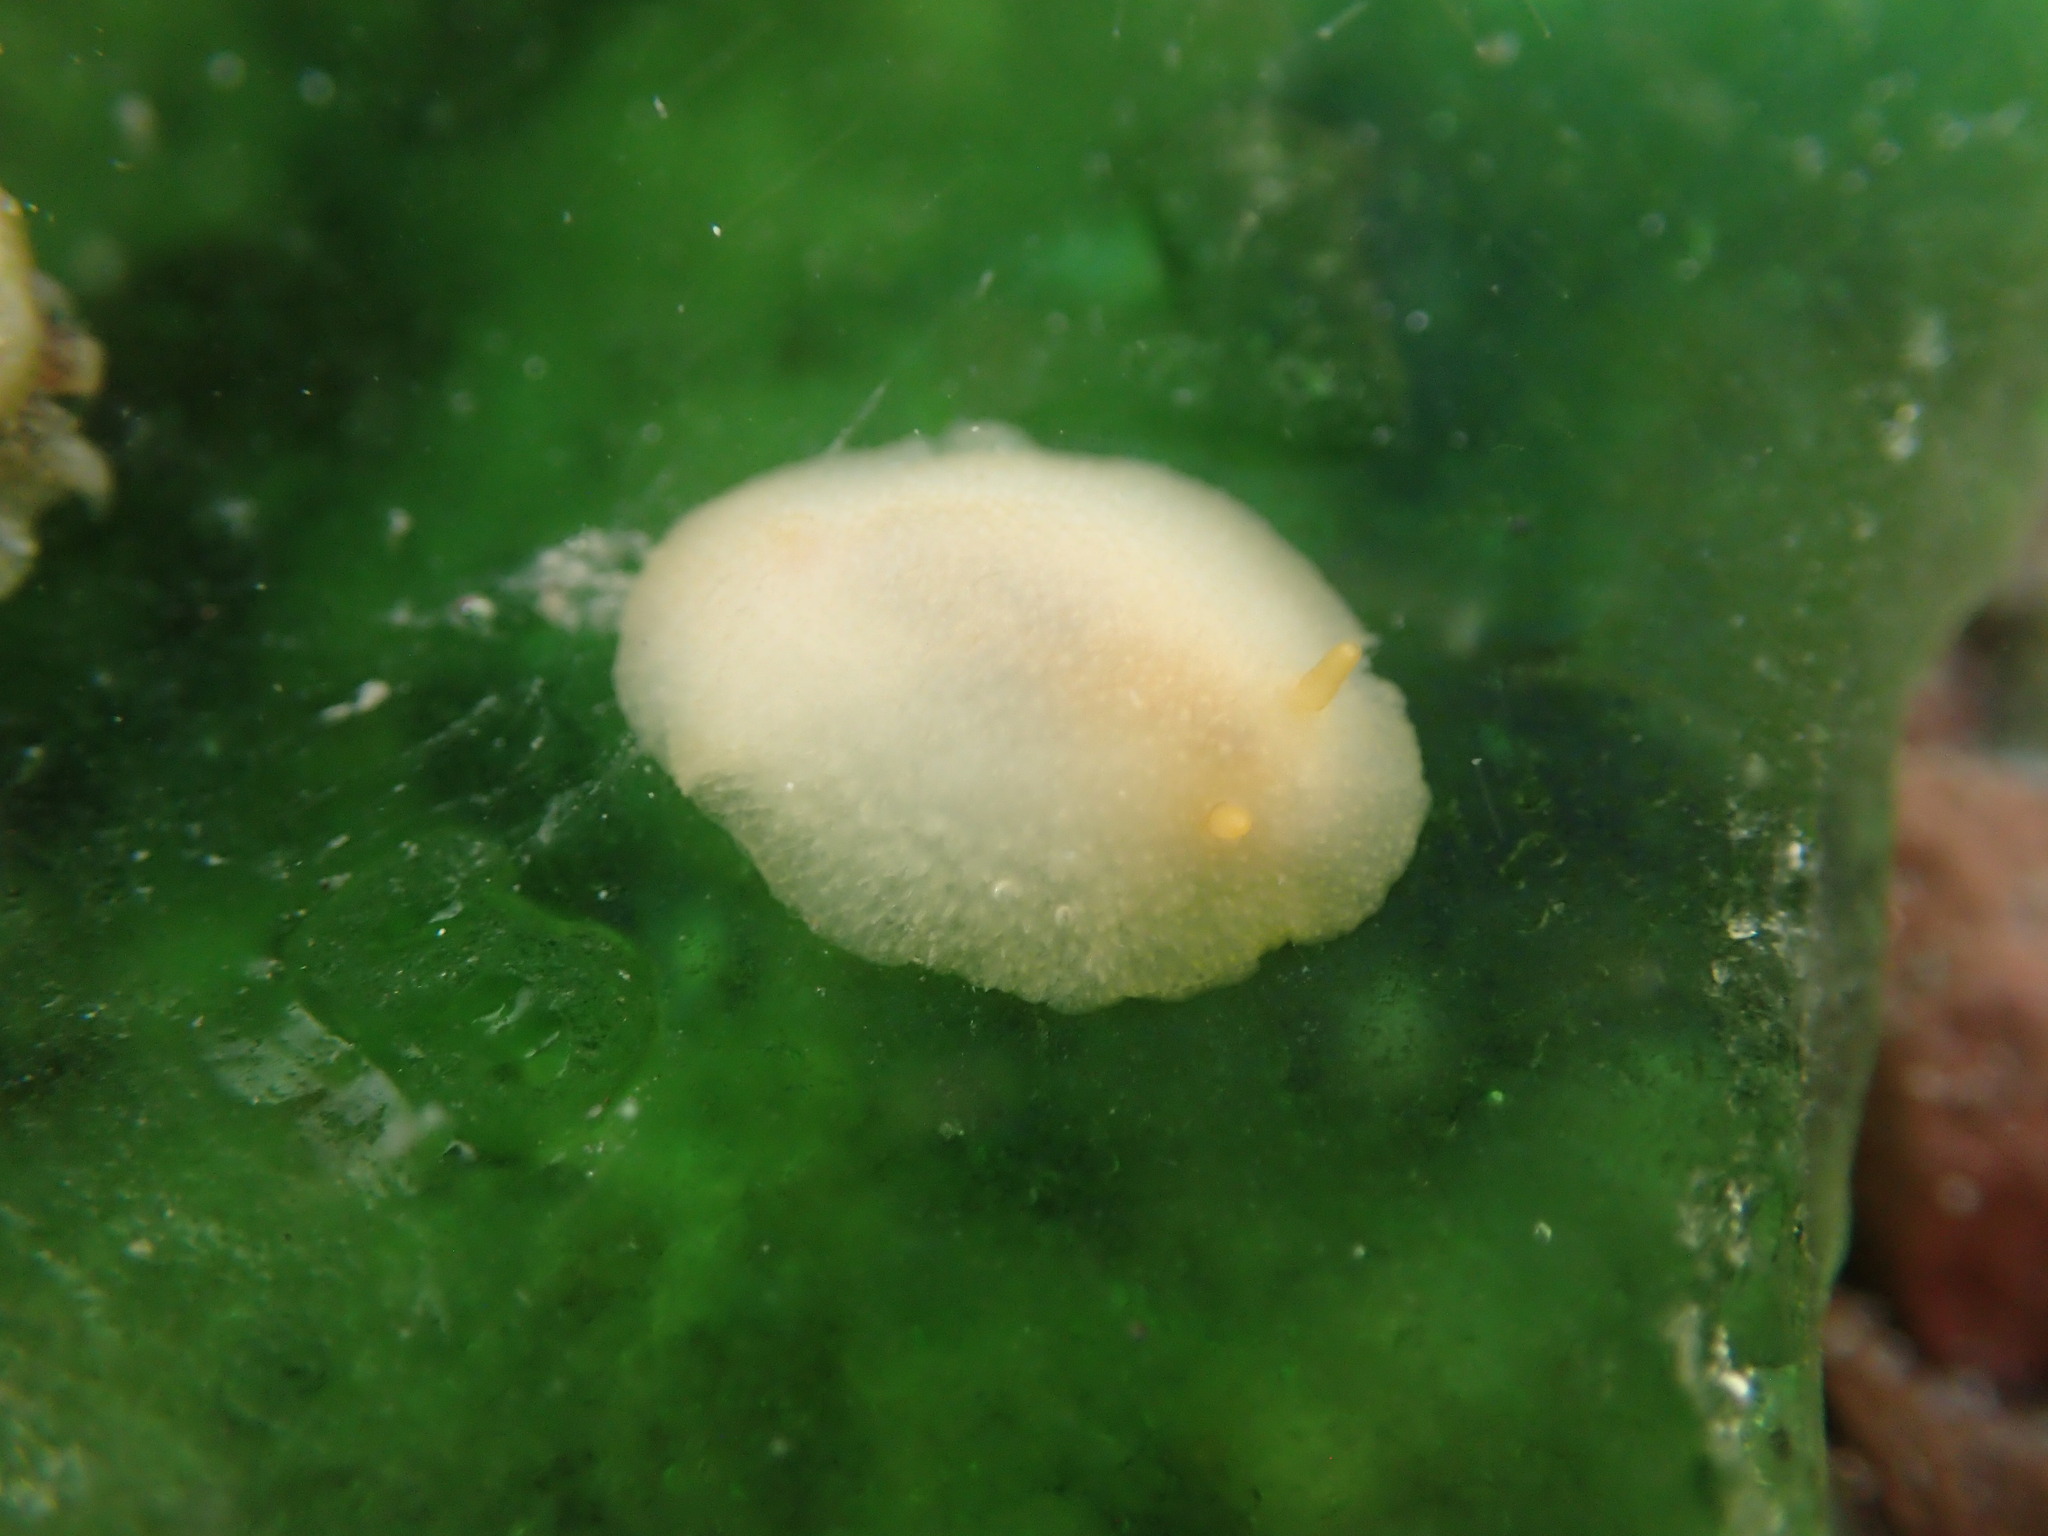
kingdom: Animalia
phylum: Mollusca
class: Gastropoda
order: Nudibranchia
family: Dorididae
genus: Conualevia
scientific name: Conualevia marcusi
